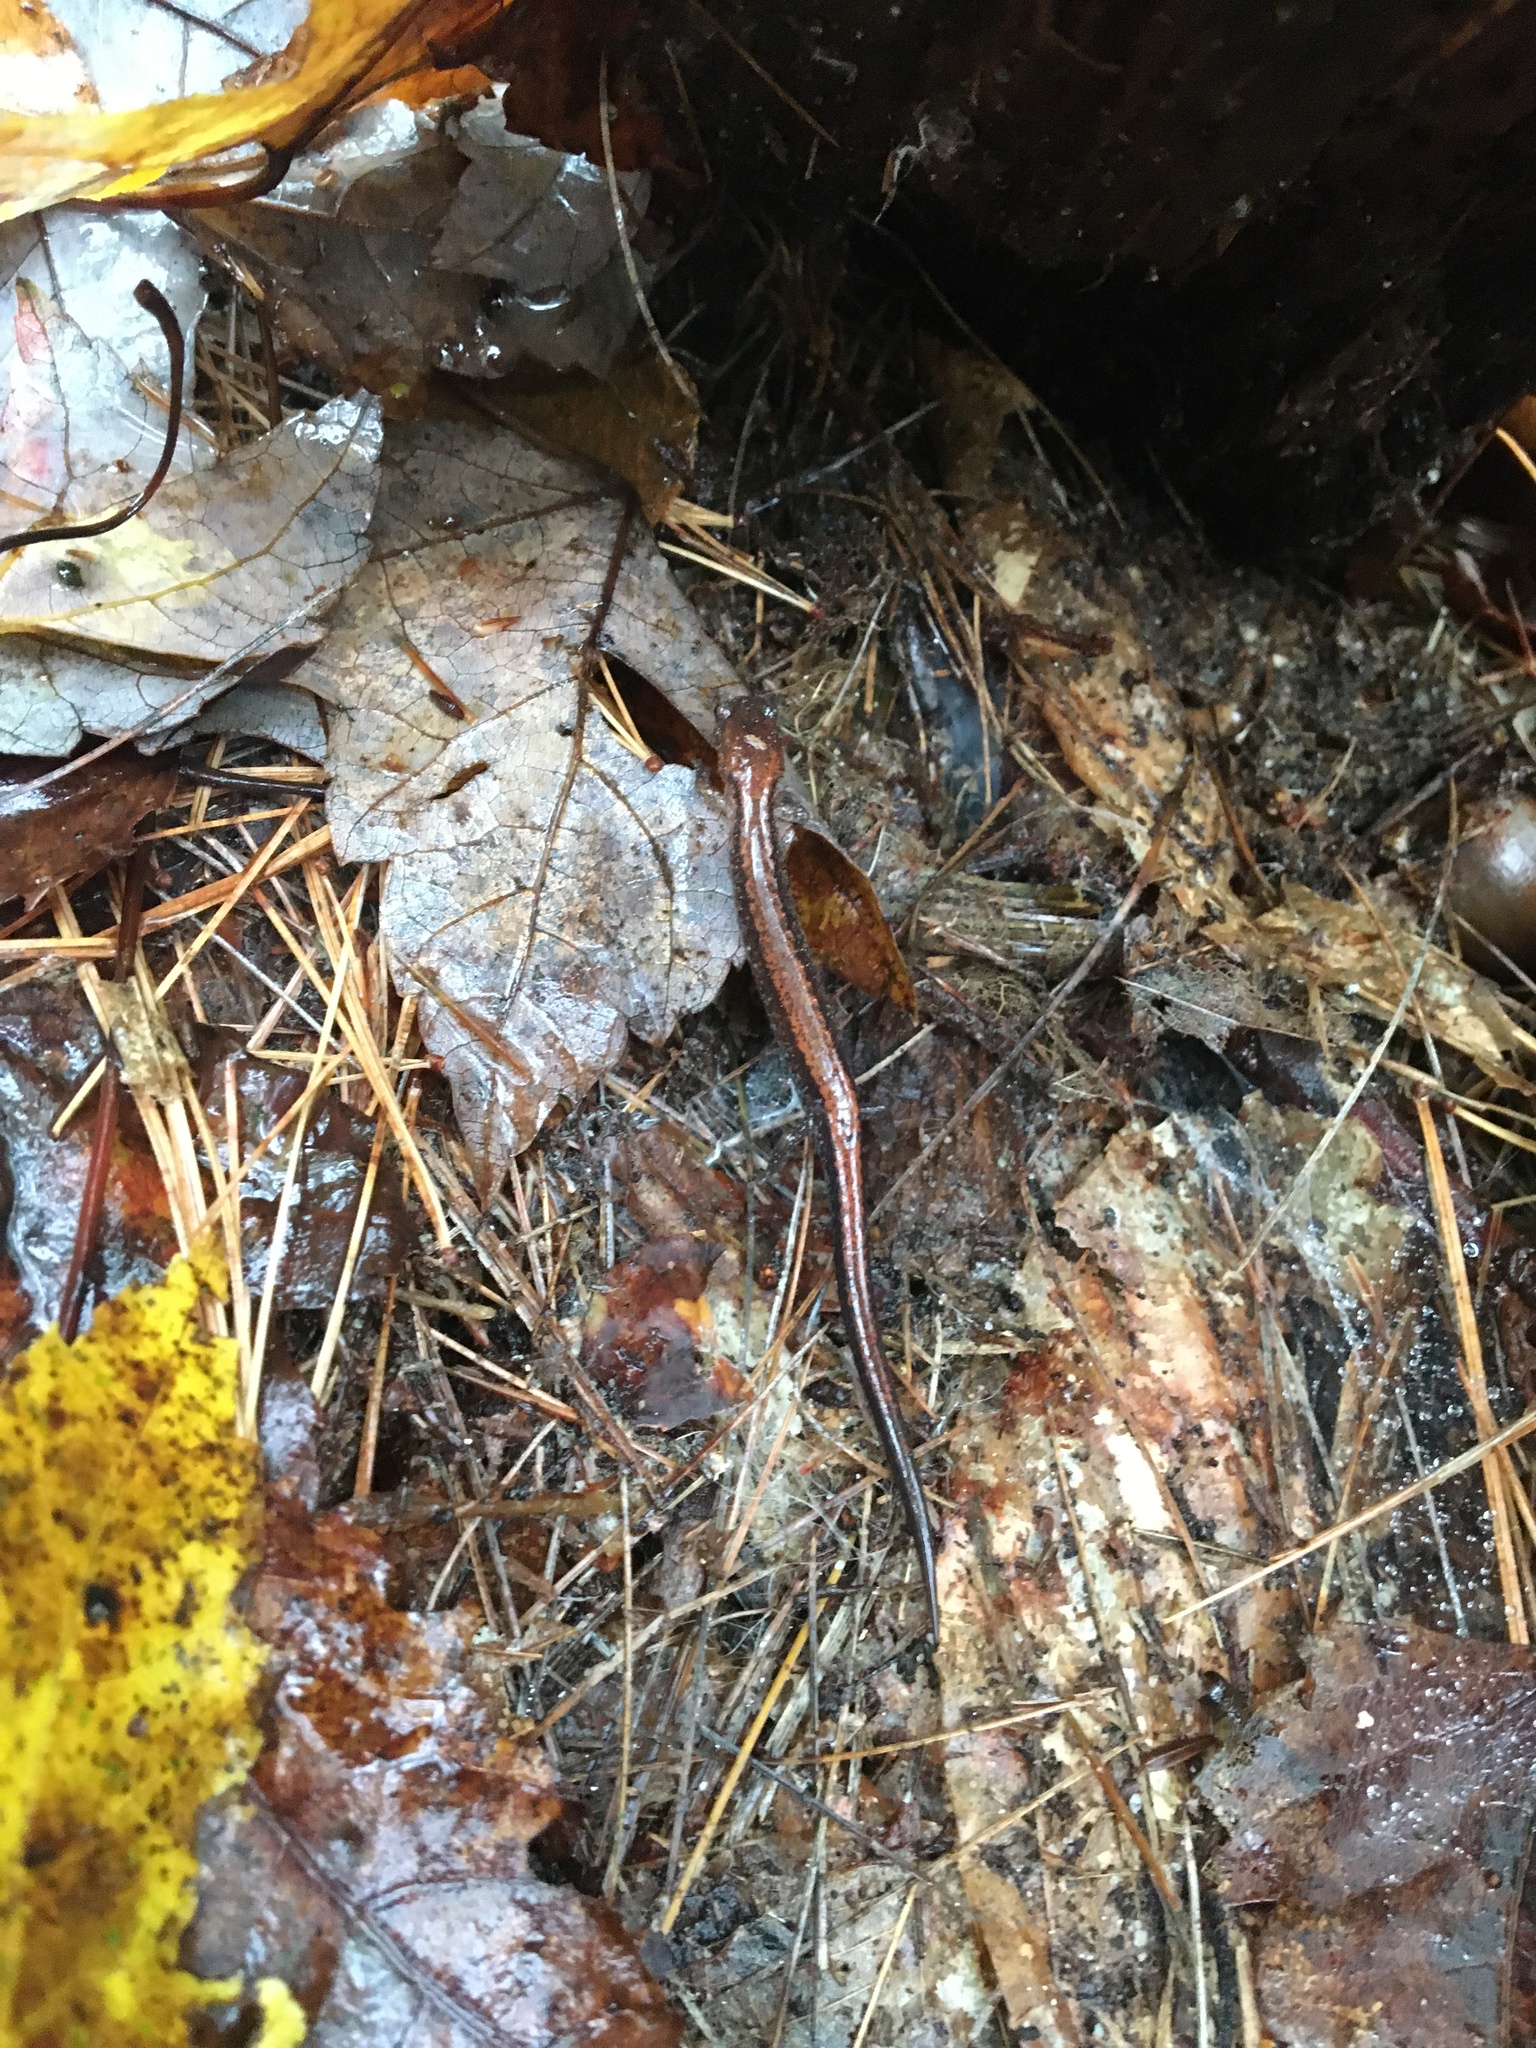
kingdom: Animalia
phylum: Chordata
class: Amphibia
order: Caudata
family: Plethodontidae
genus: Plethodon
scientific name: Plethodon cinereus
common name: Redback salamander
